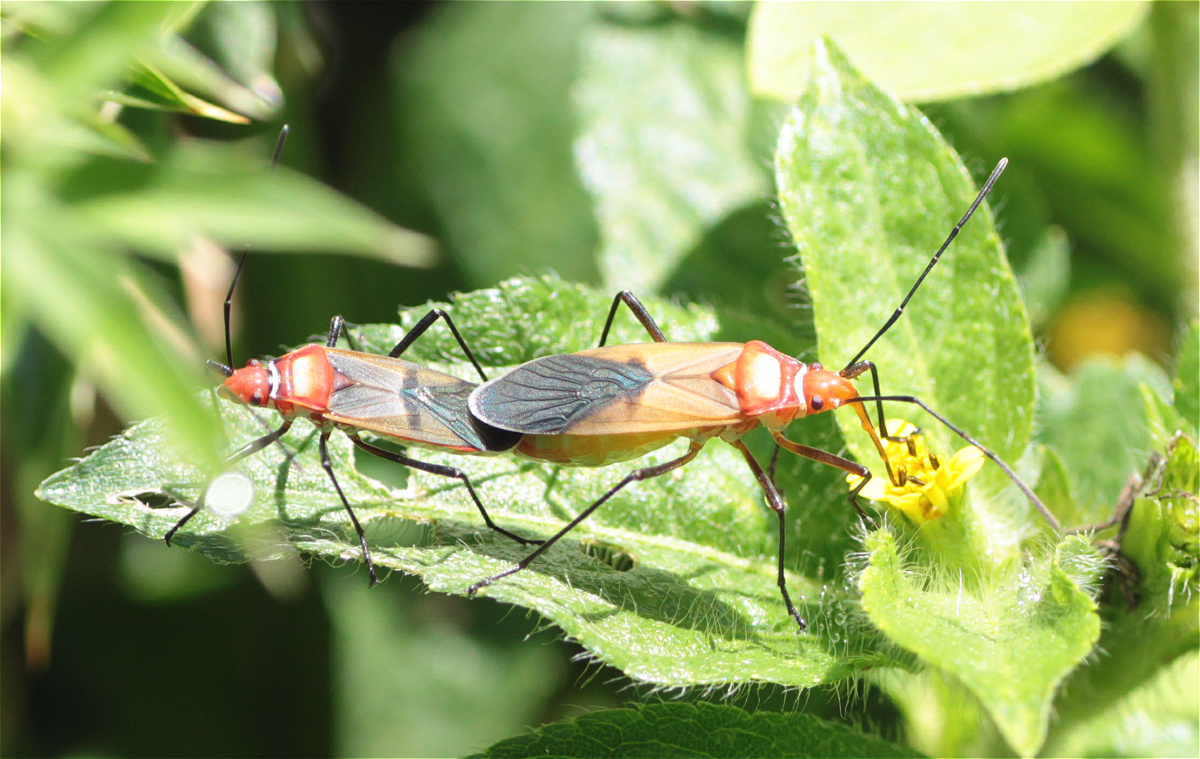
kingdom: Animalia
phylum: Arthropoda
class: Insecta
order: Hemiptera
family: Pyrrhocoridae
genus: Dysdercus
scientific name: Dysdercus collaris
